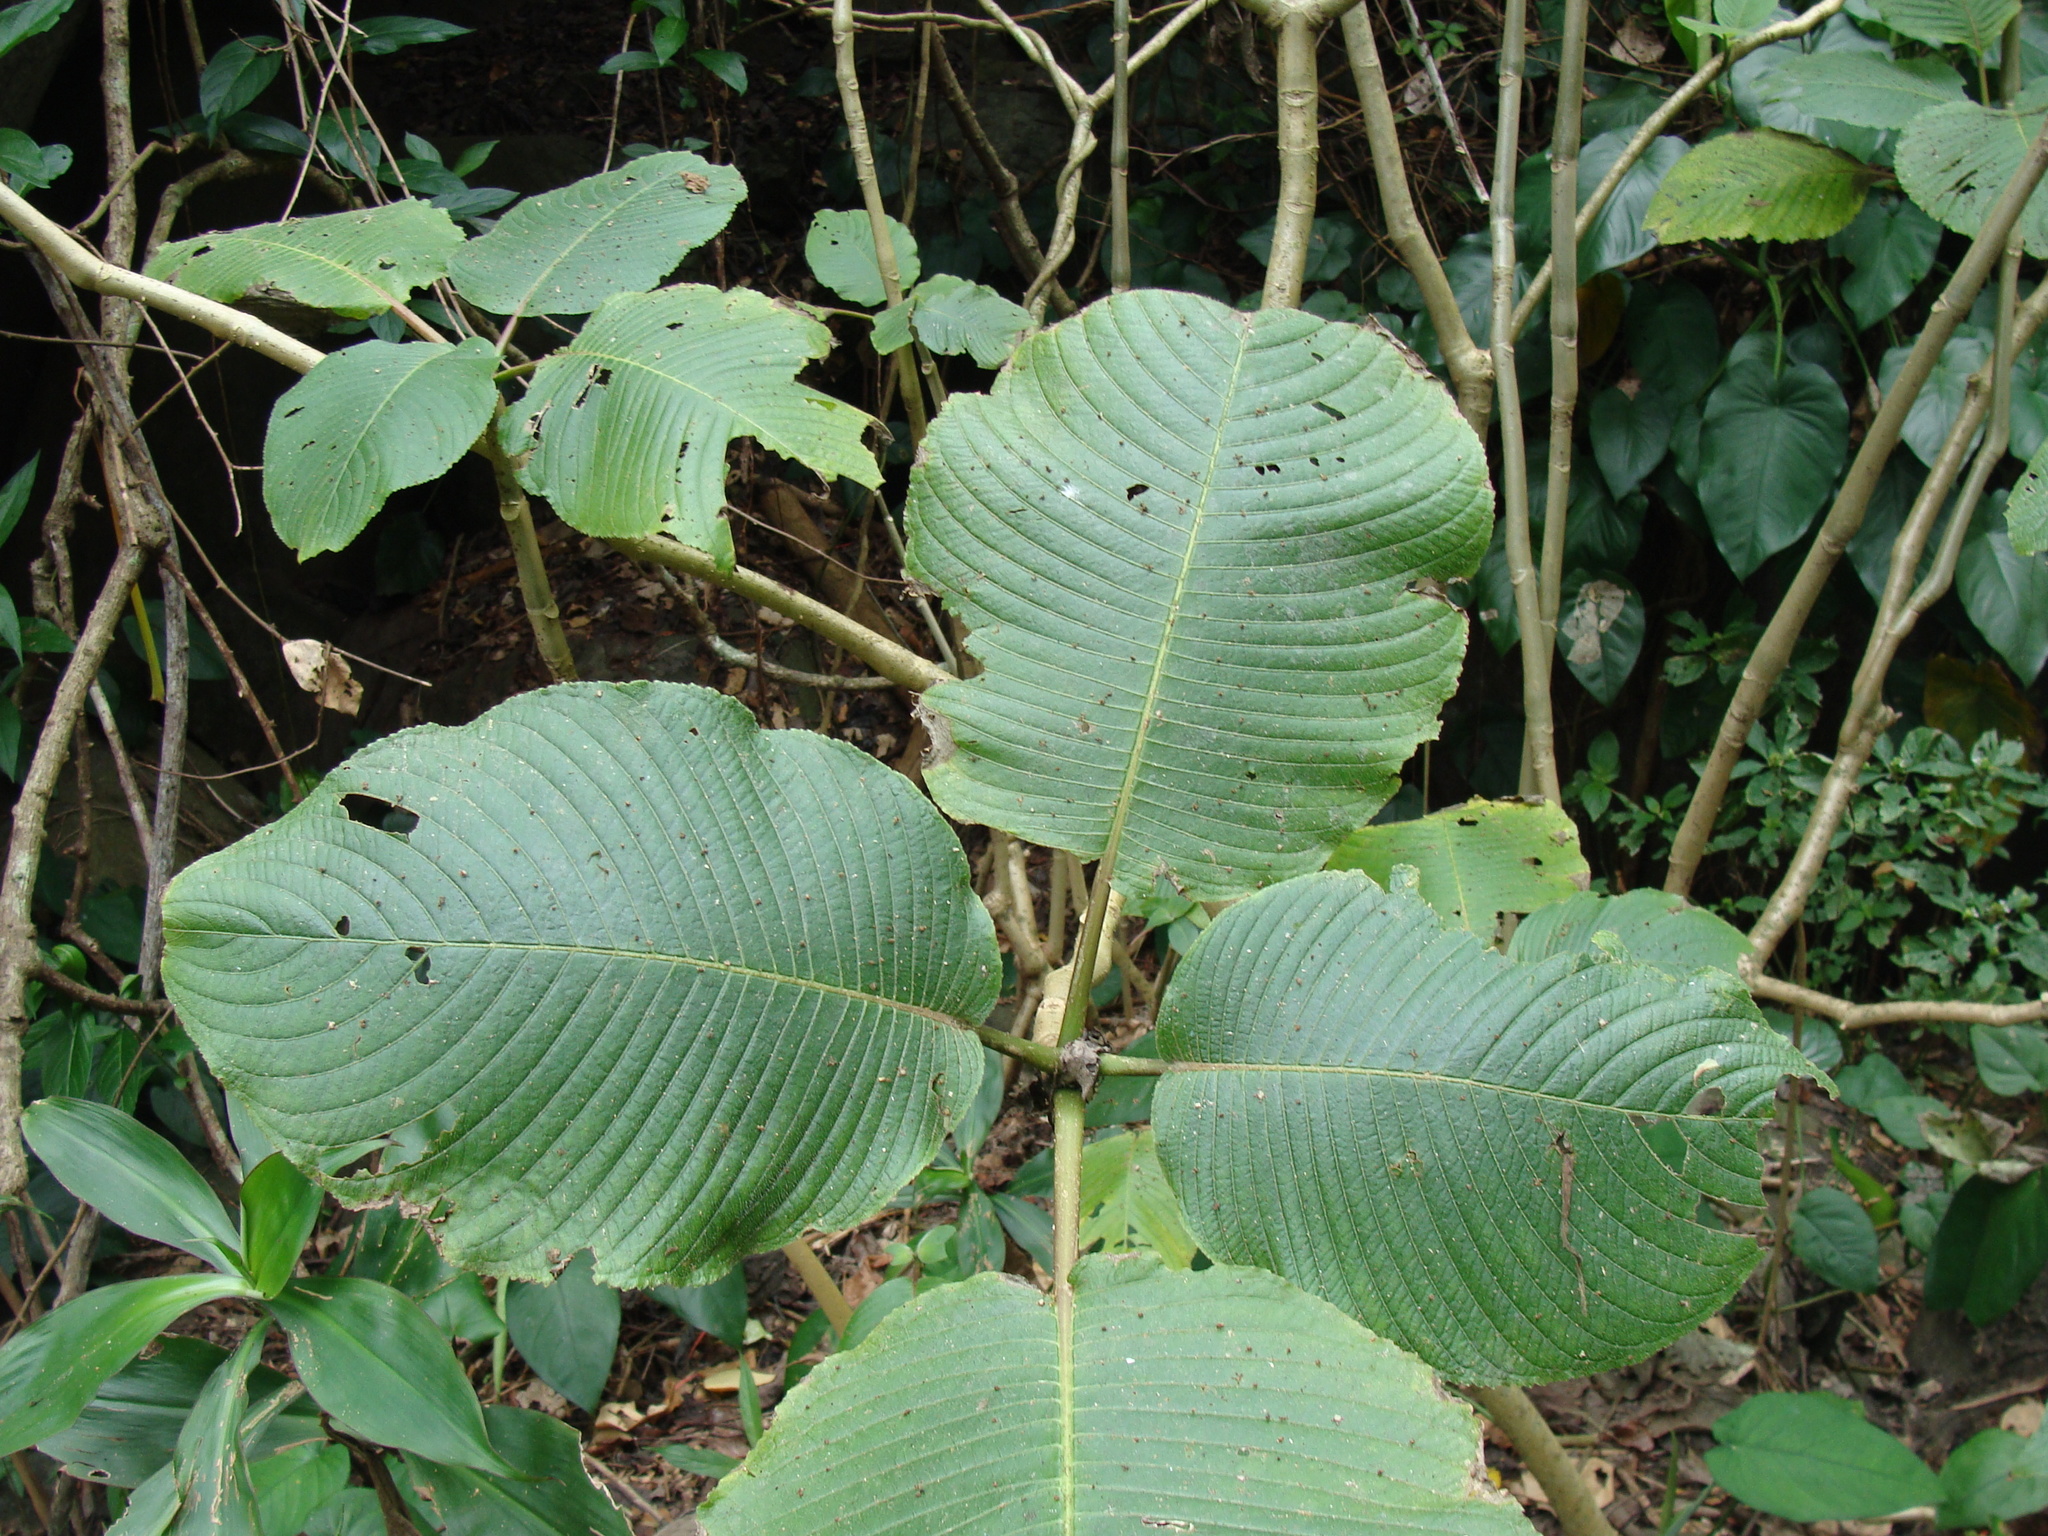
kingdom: Plantae
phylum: Tracheophyta
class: Magnoliopsida
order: Lamiales
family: Acanthaceae
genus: Louteridium
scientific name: Louteridium purpusii
